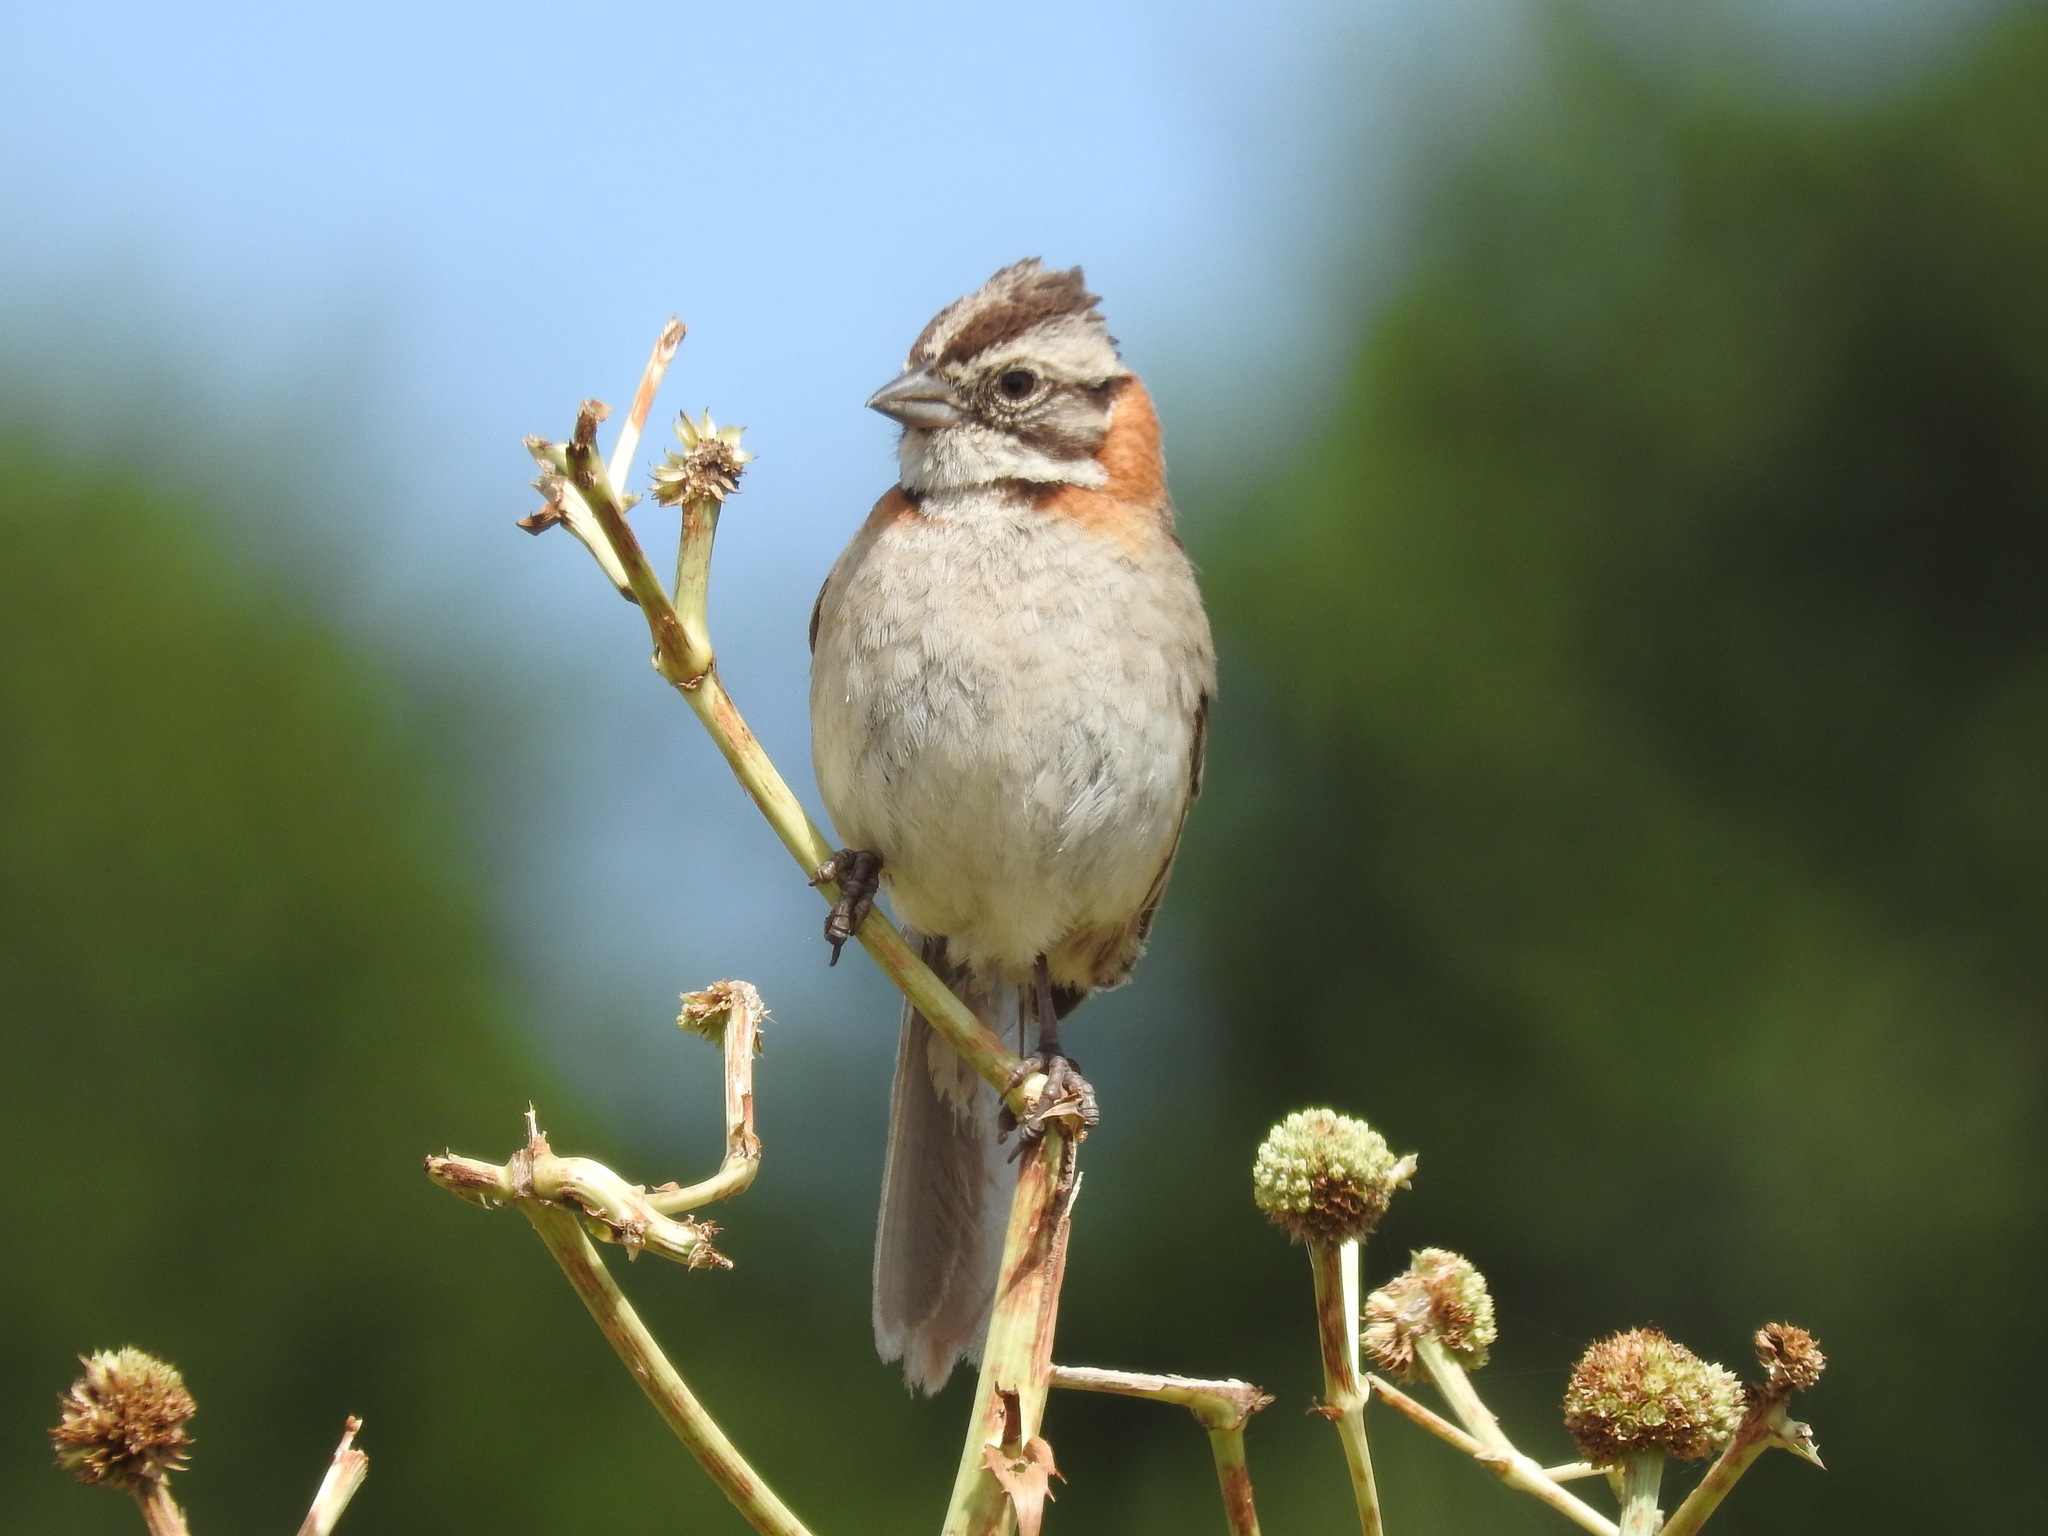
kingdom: Animalia
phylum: Chordata
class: Aves
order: Passeriformes
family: Passerellidae
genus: Zonotrichia
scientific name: Zonotrichia capensis
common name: Rufous-collared sparrow
